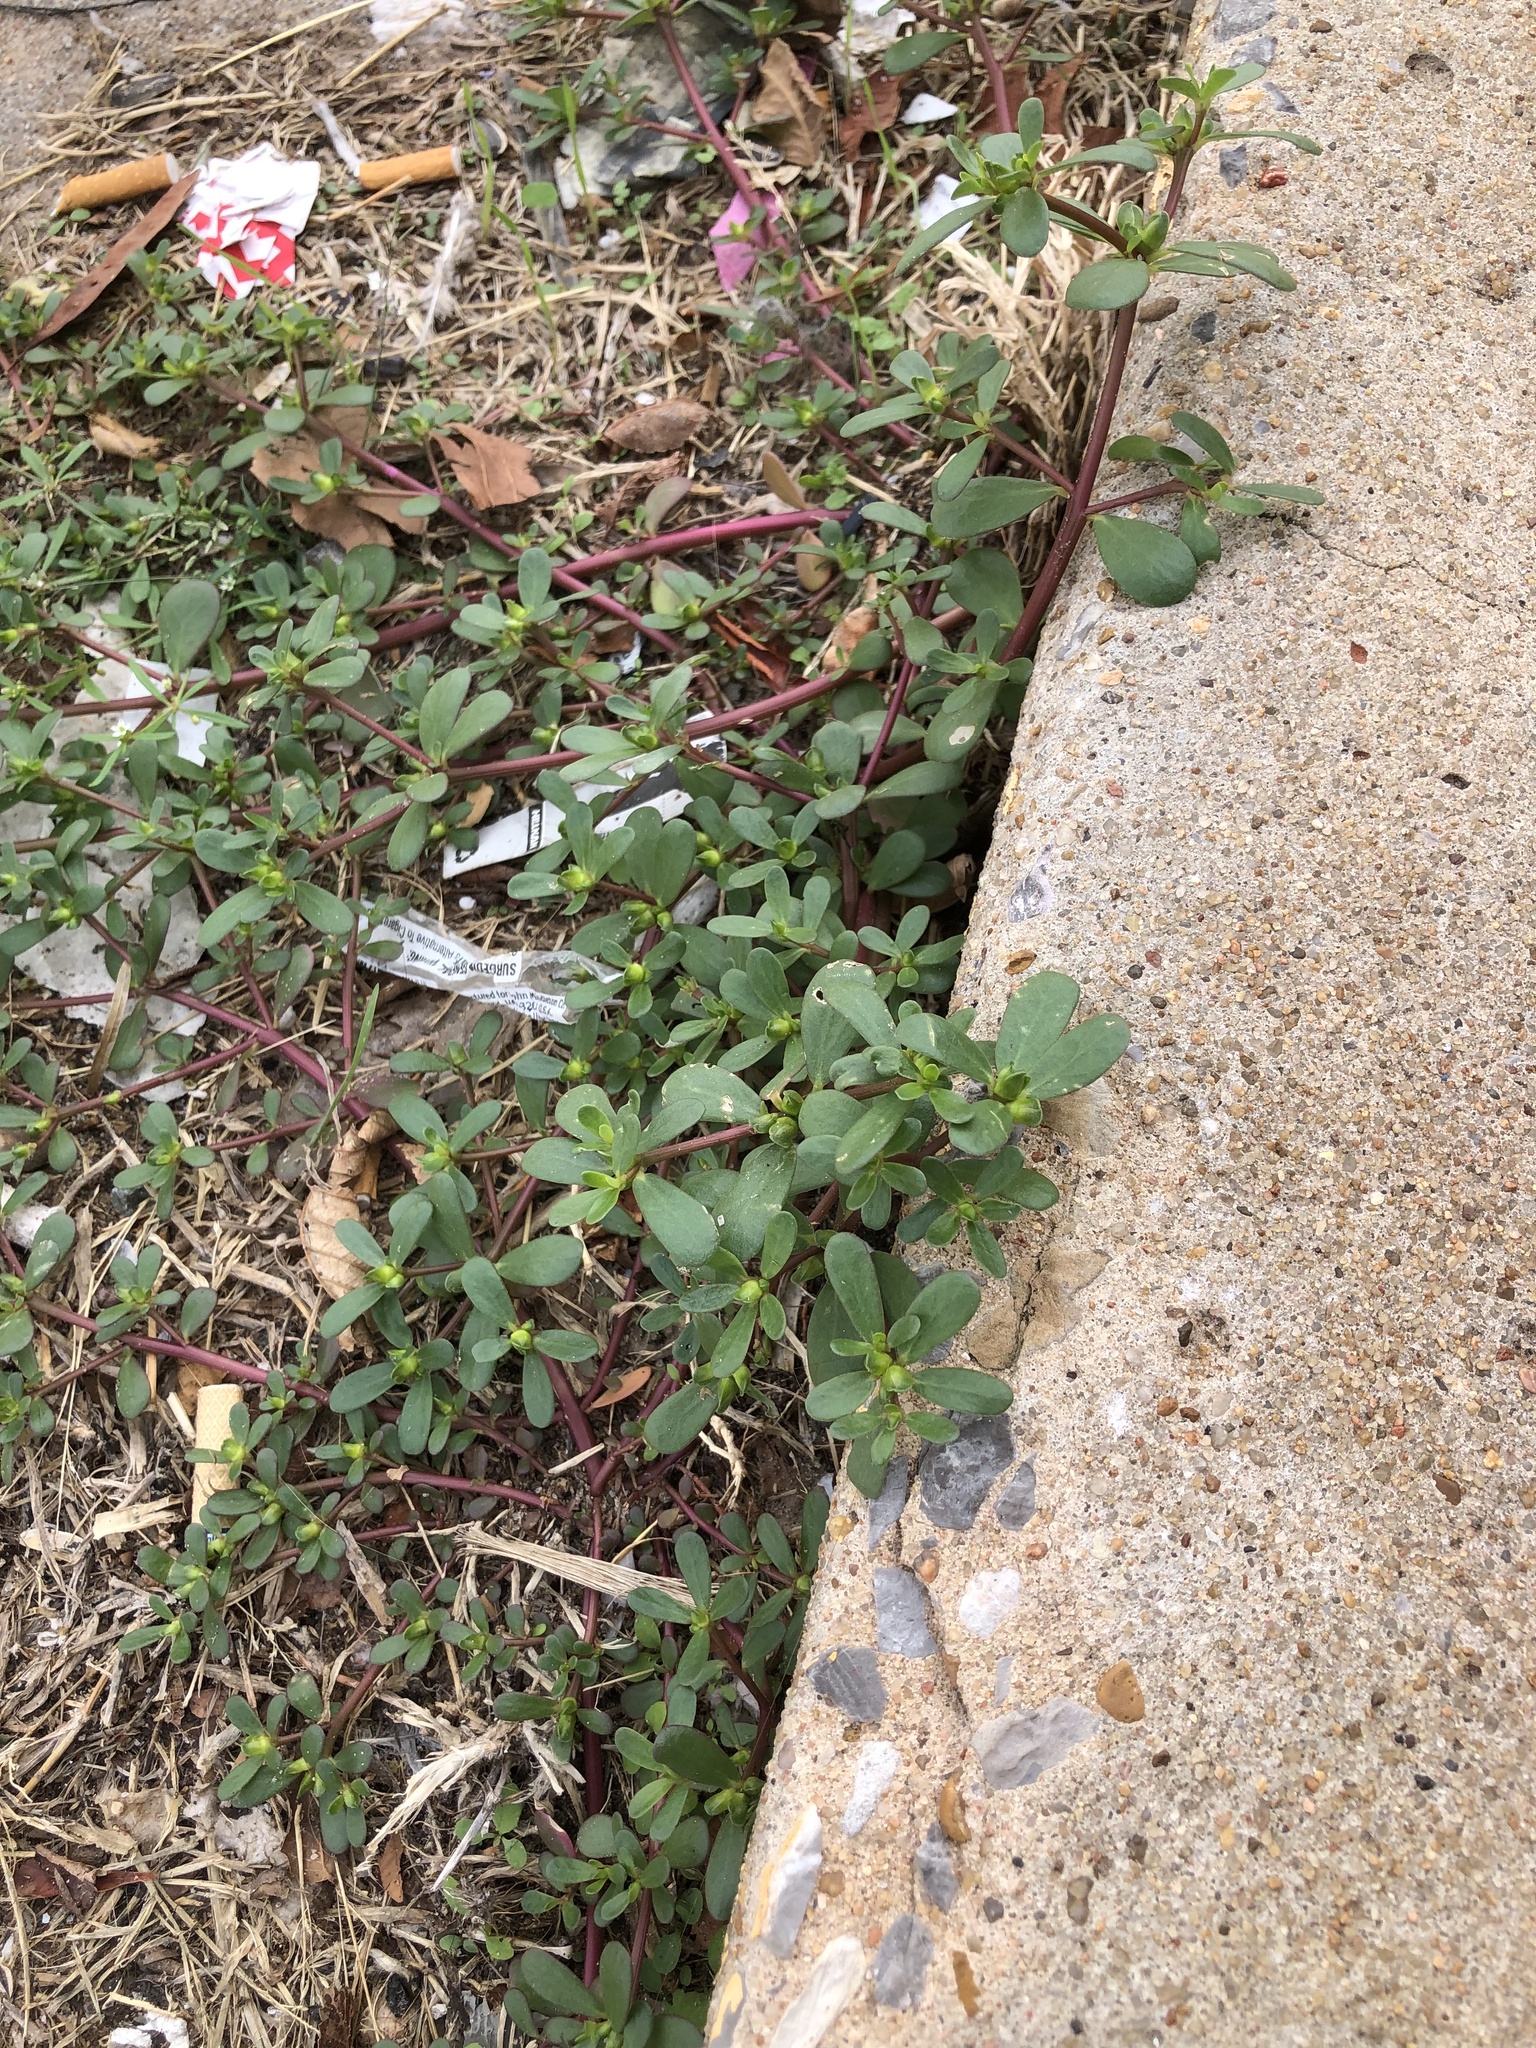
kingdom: Plantae
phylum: Tracheophyta
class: Magnoliopsida
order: Caryophyllales
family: Portulacaceae
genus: Portulaca
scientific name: Portulaca oleracea
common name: Common purslane
